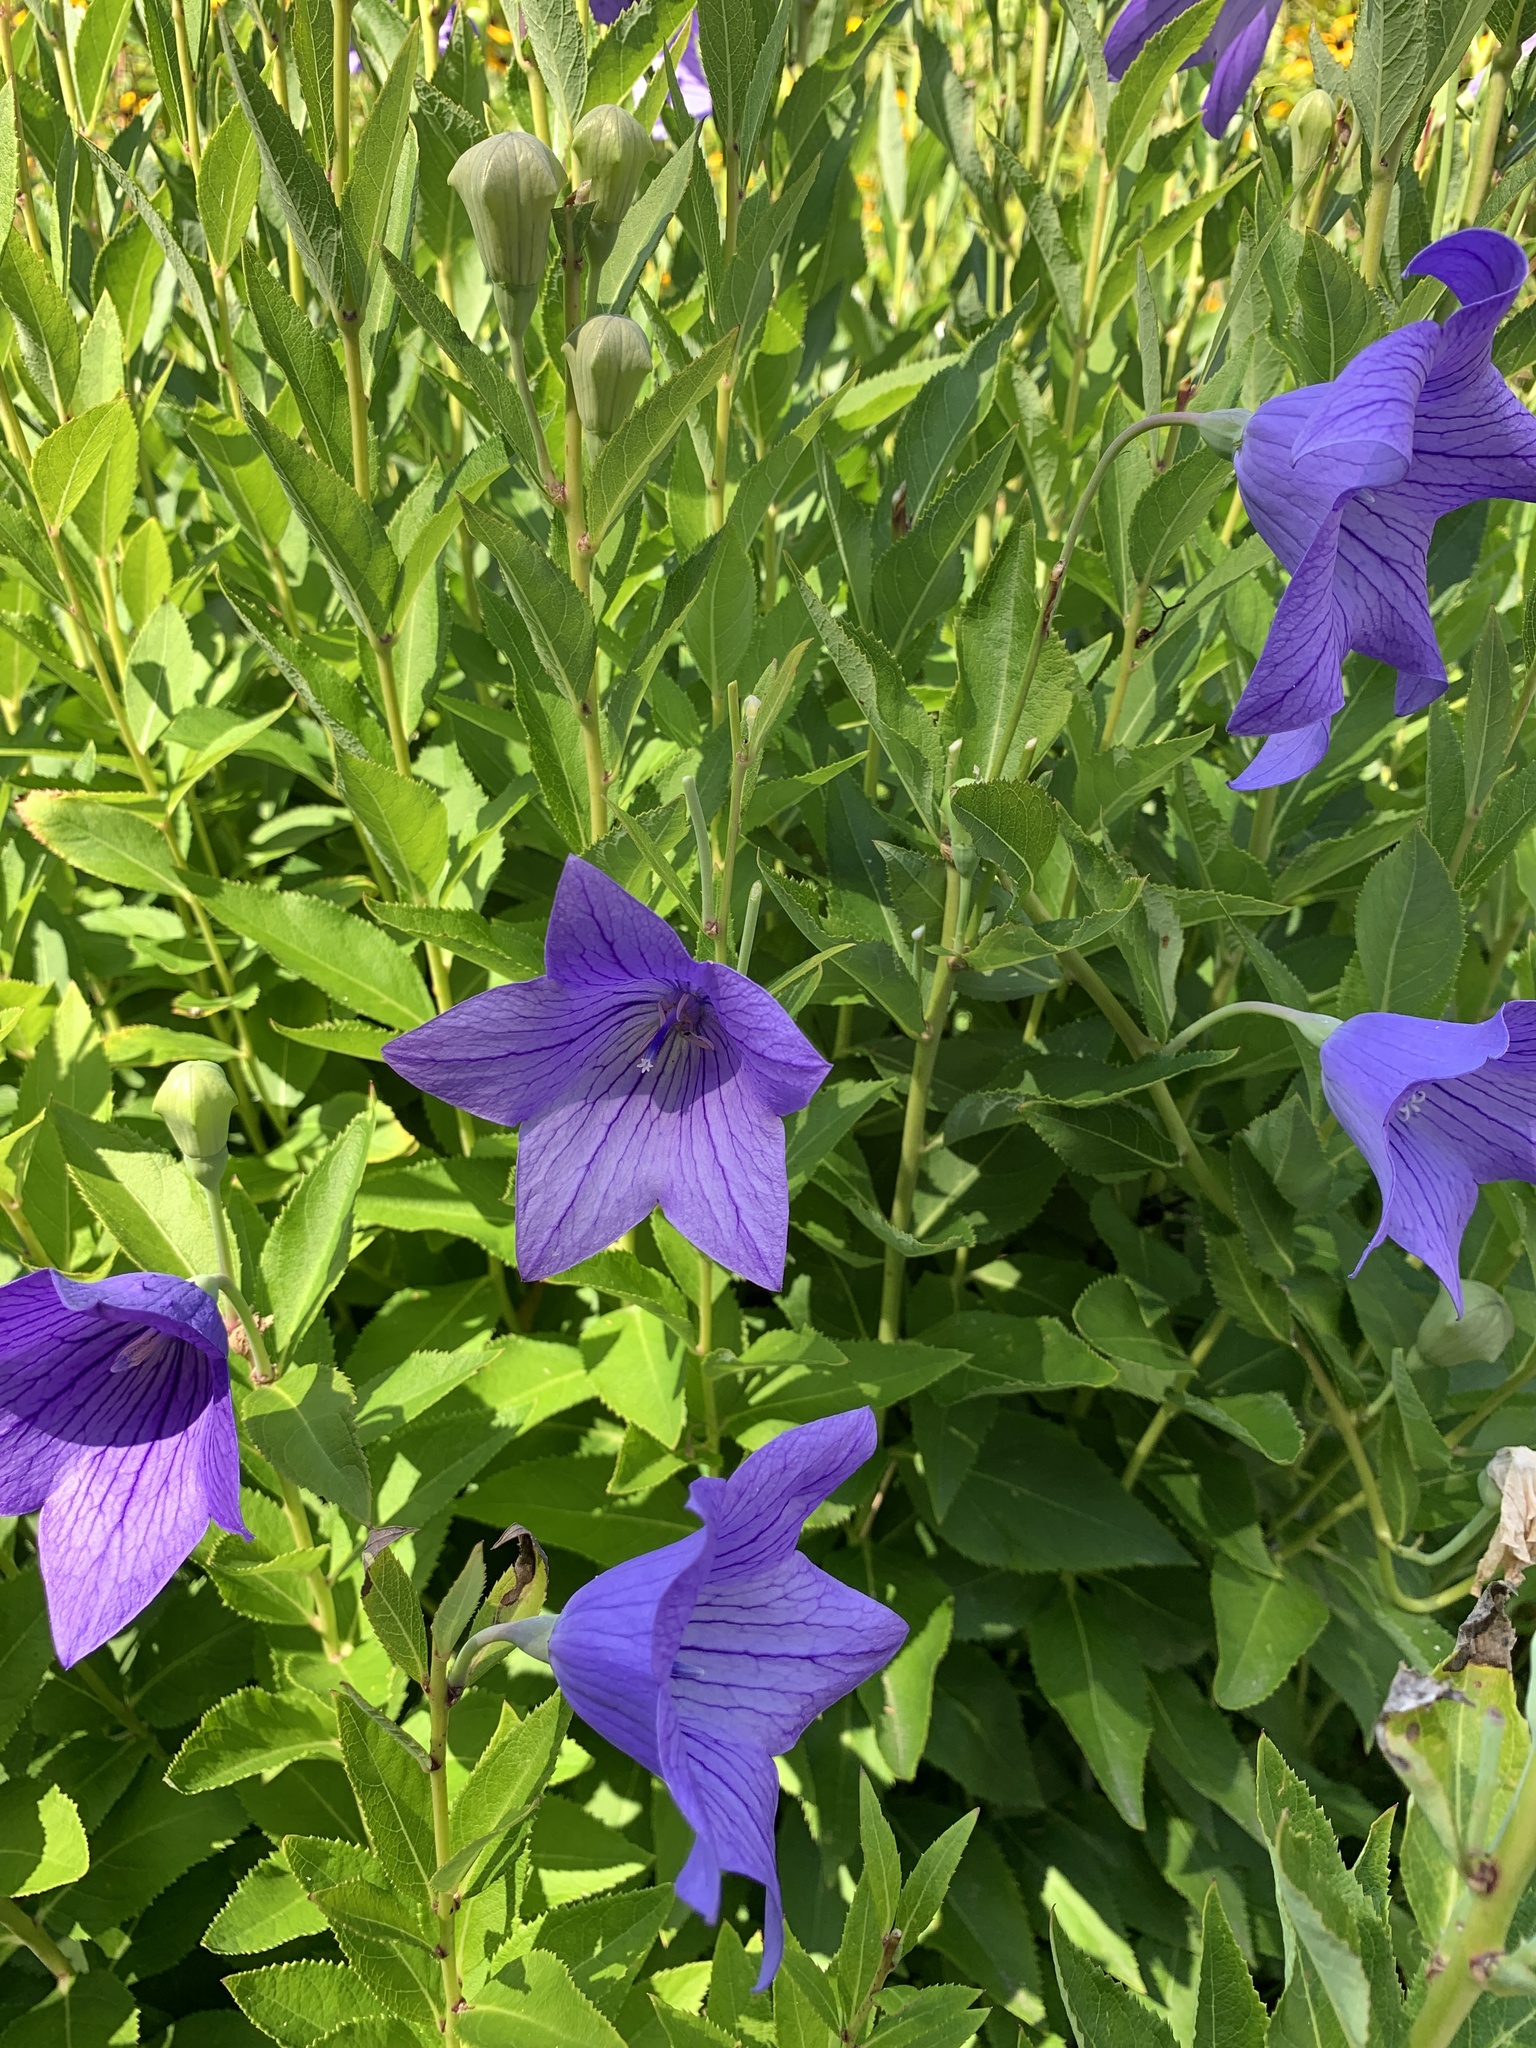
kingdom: Plantae
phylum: Tracheophyta
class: Magnoliopsida
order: Asterales
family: Campanulaceae
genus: Platycodon
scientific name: Platycodon grandiflorus
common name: Balloon-flower
